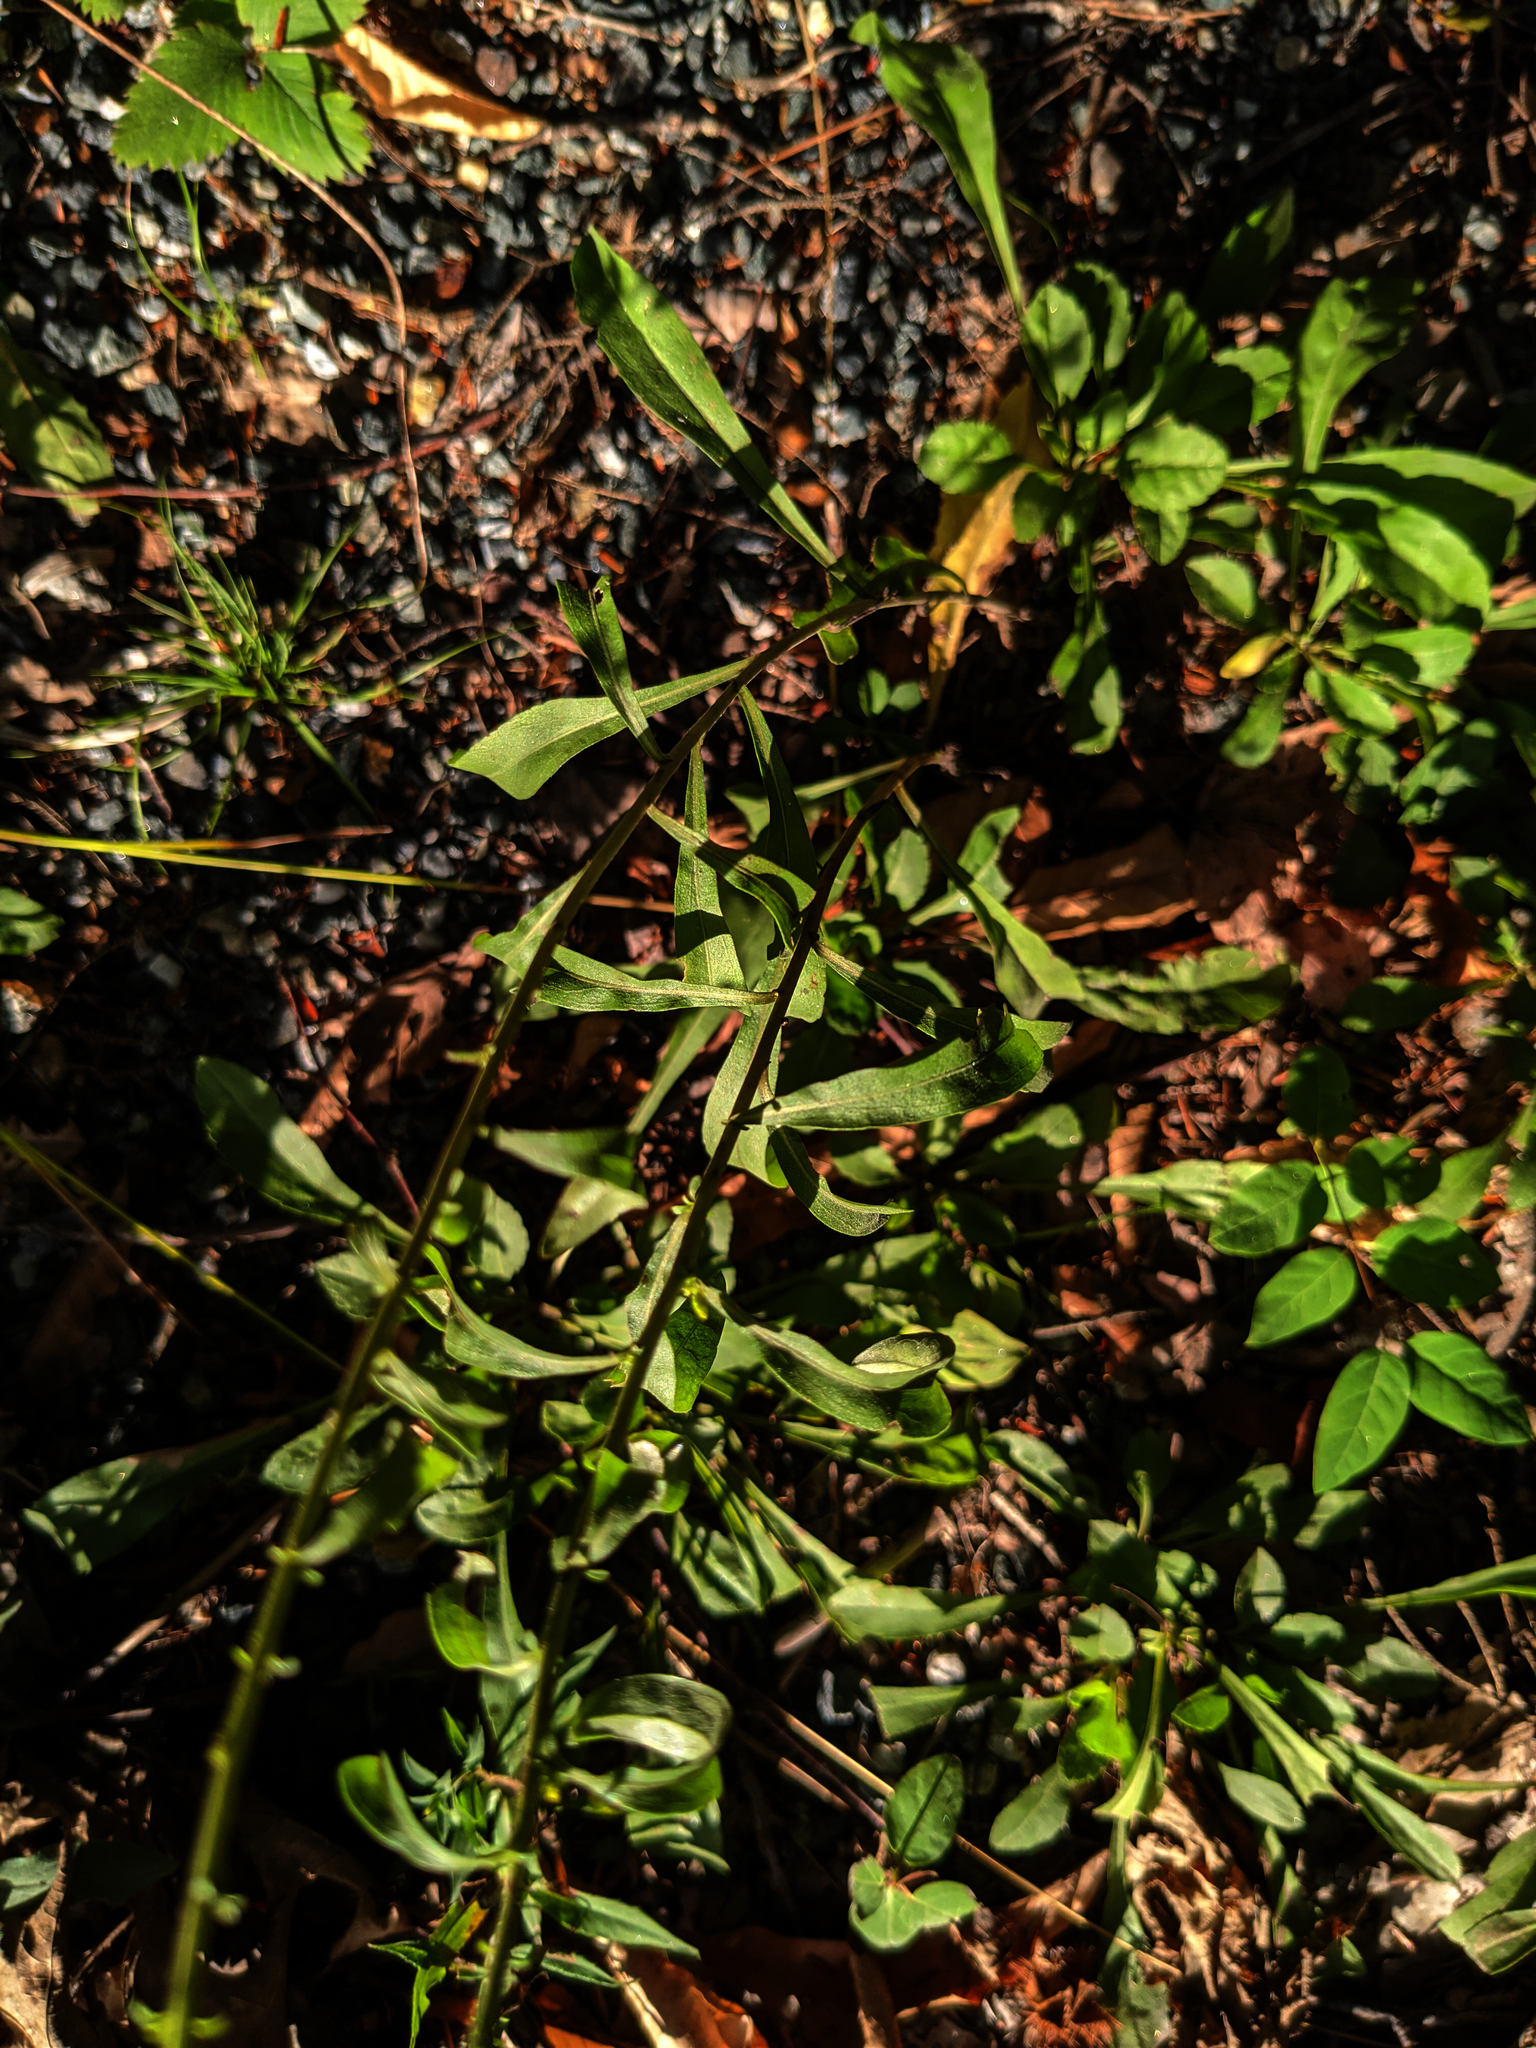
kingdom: Plantae
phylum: Tracheophyta
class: Magnoliopsida
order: Asterales
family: Asteraceae
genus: Solidago
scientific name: Solidago nemoralis
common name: Grey goldenrod
